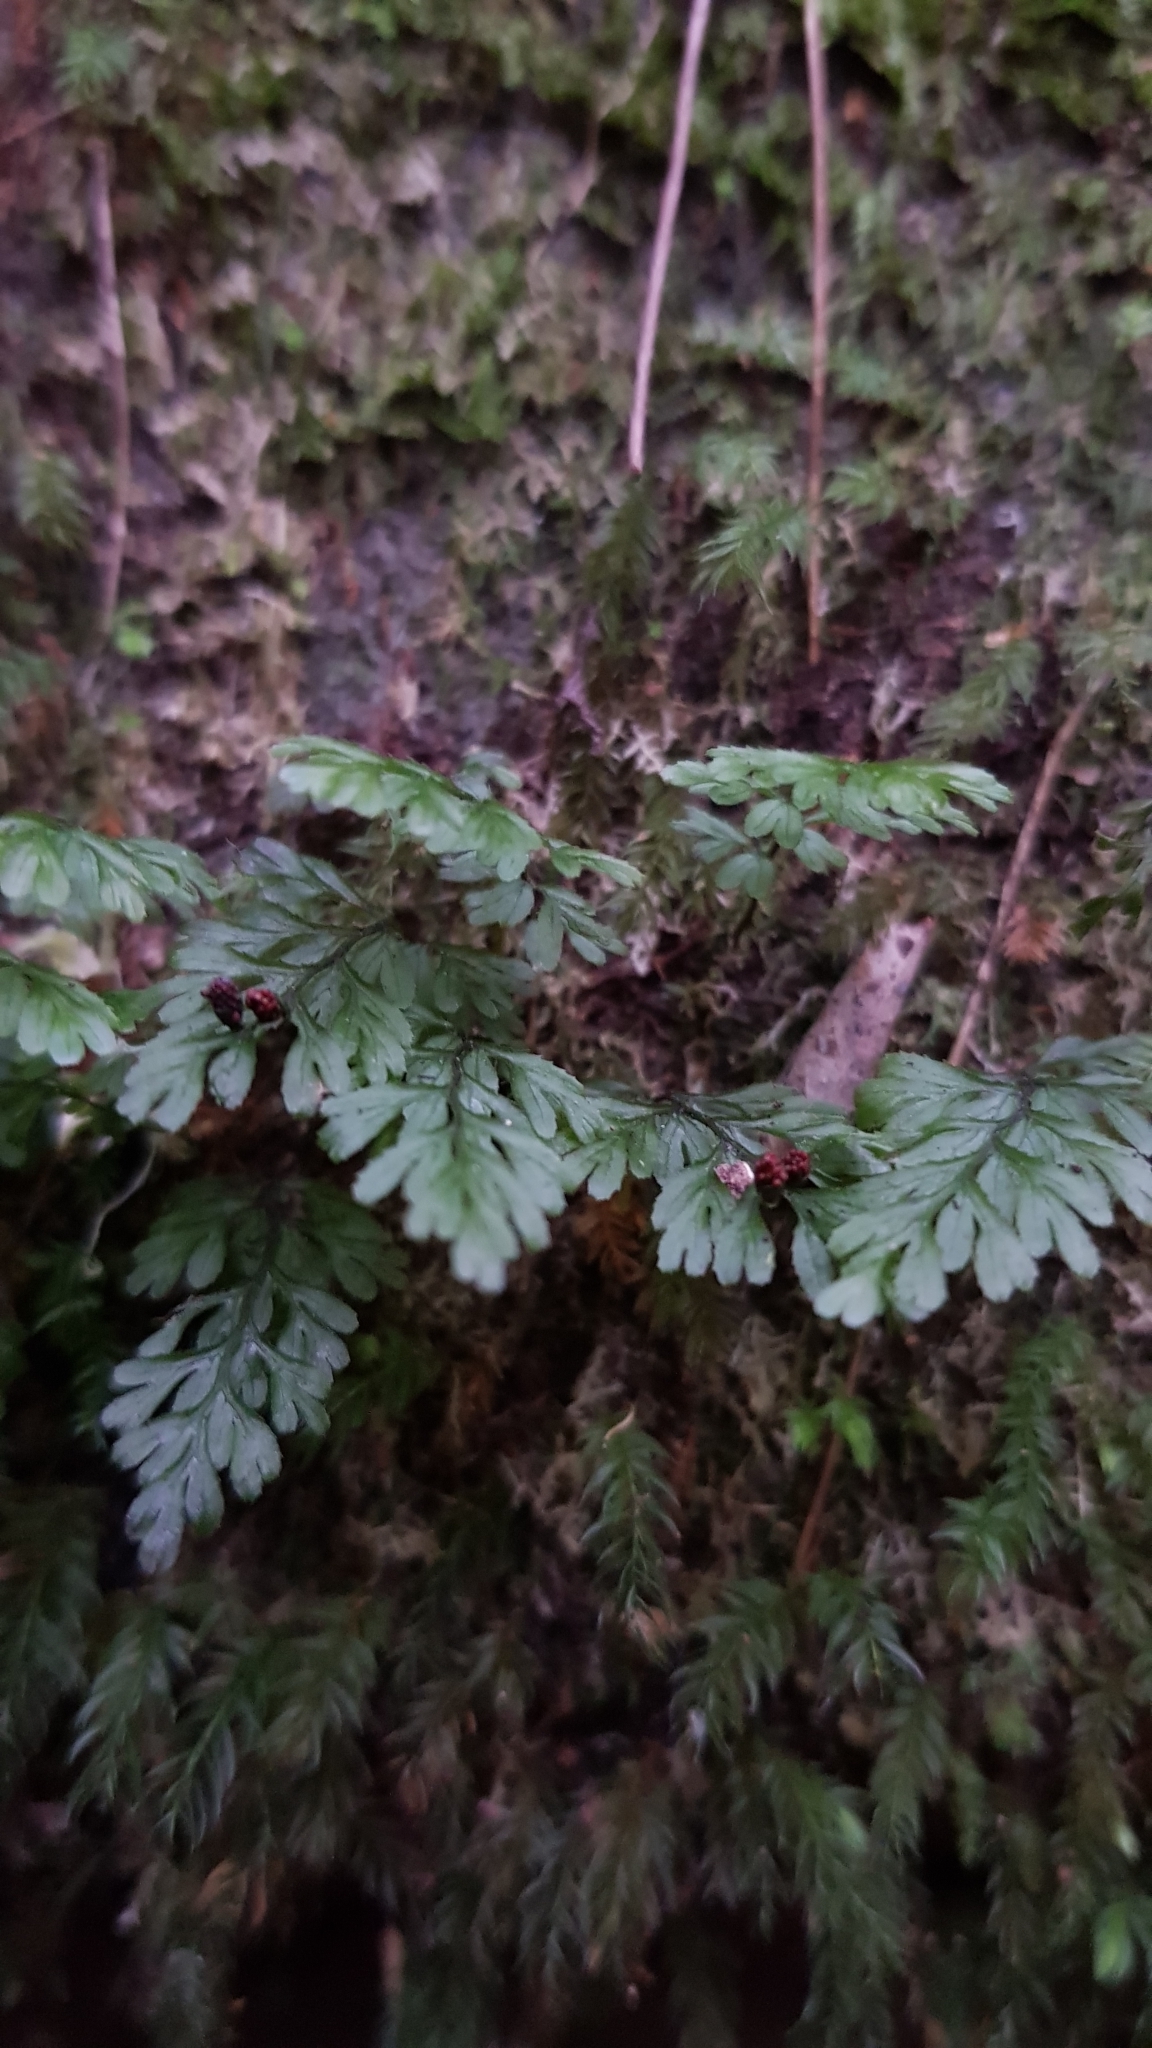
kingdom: Plantae
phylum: Tracheophyta
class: Polypodiopsida
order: Hymenophyllales
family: Hymenophyllaceae
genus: Hymenophyllum
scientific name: Hymenophyllum cupressiforme
